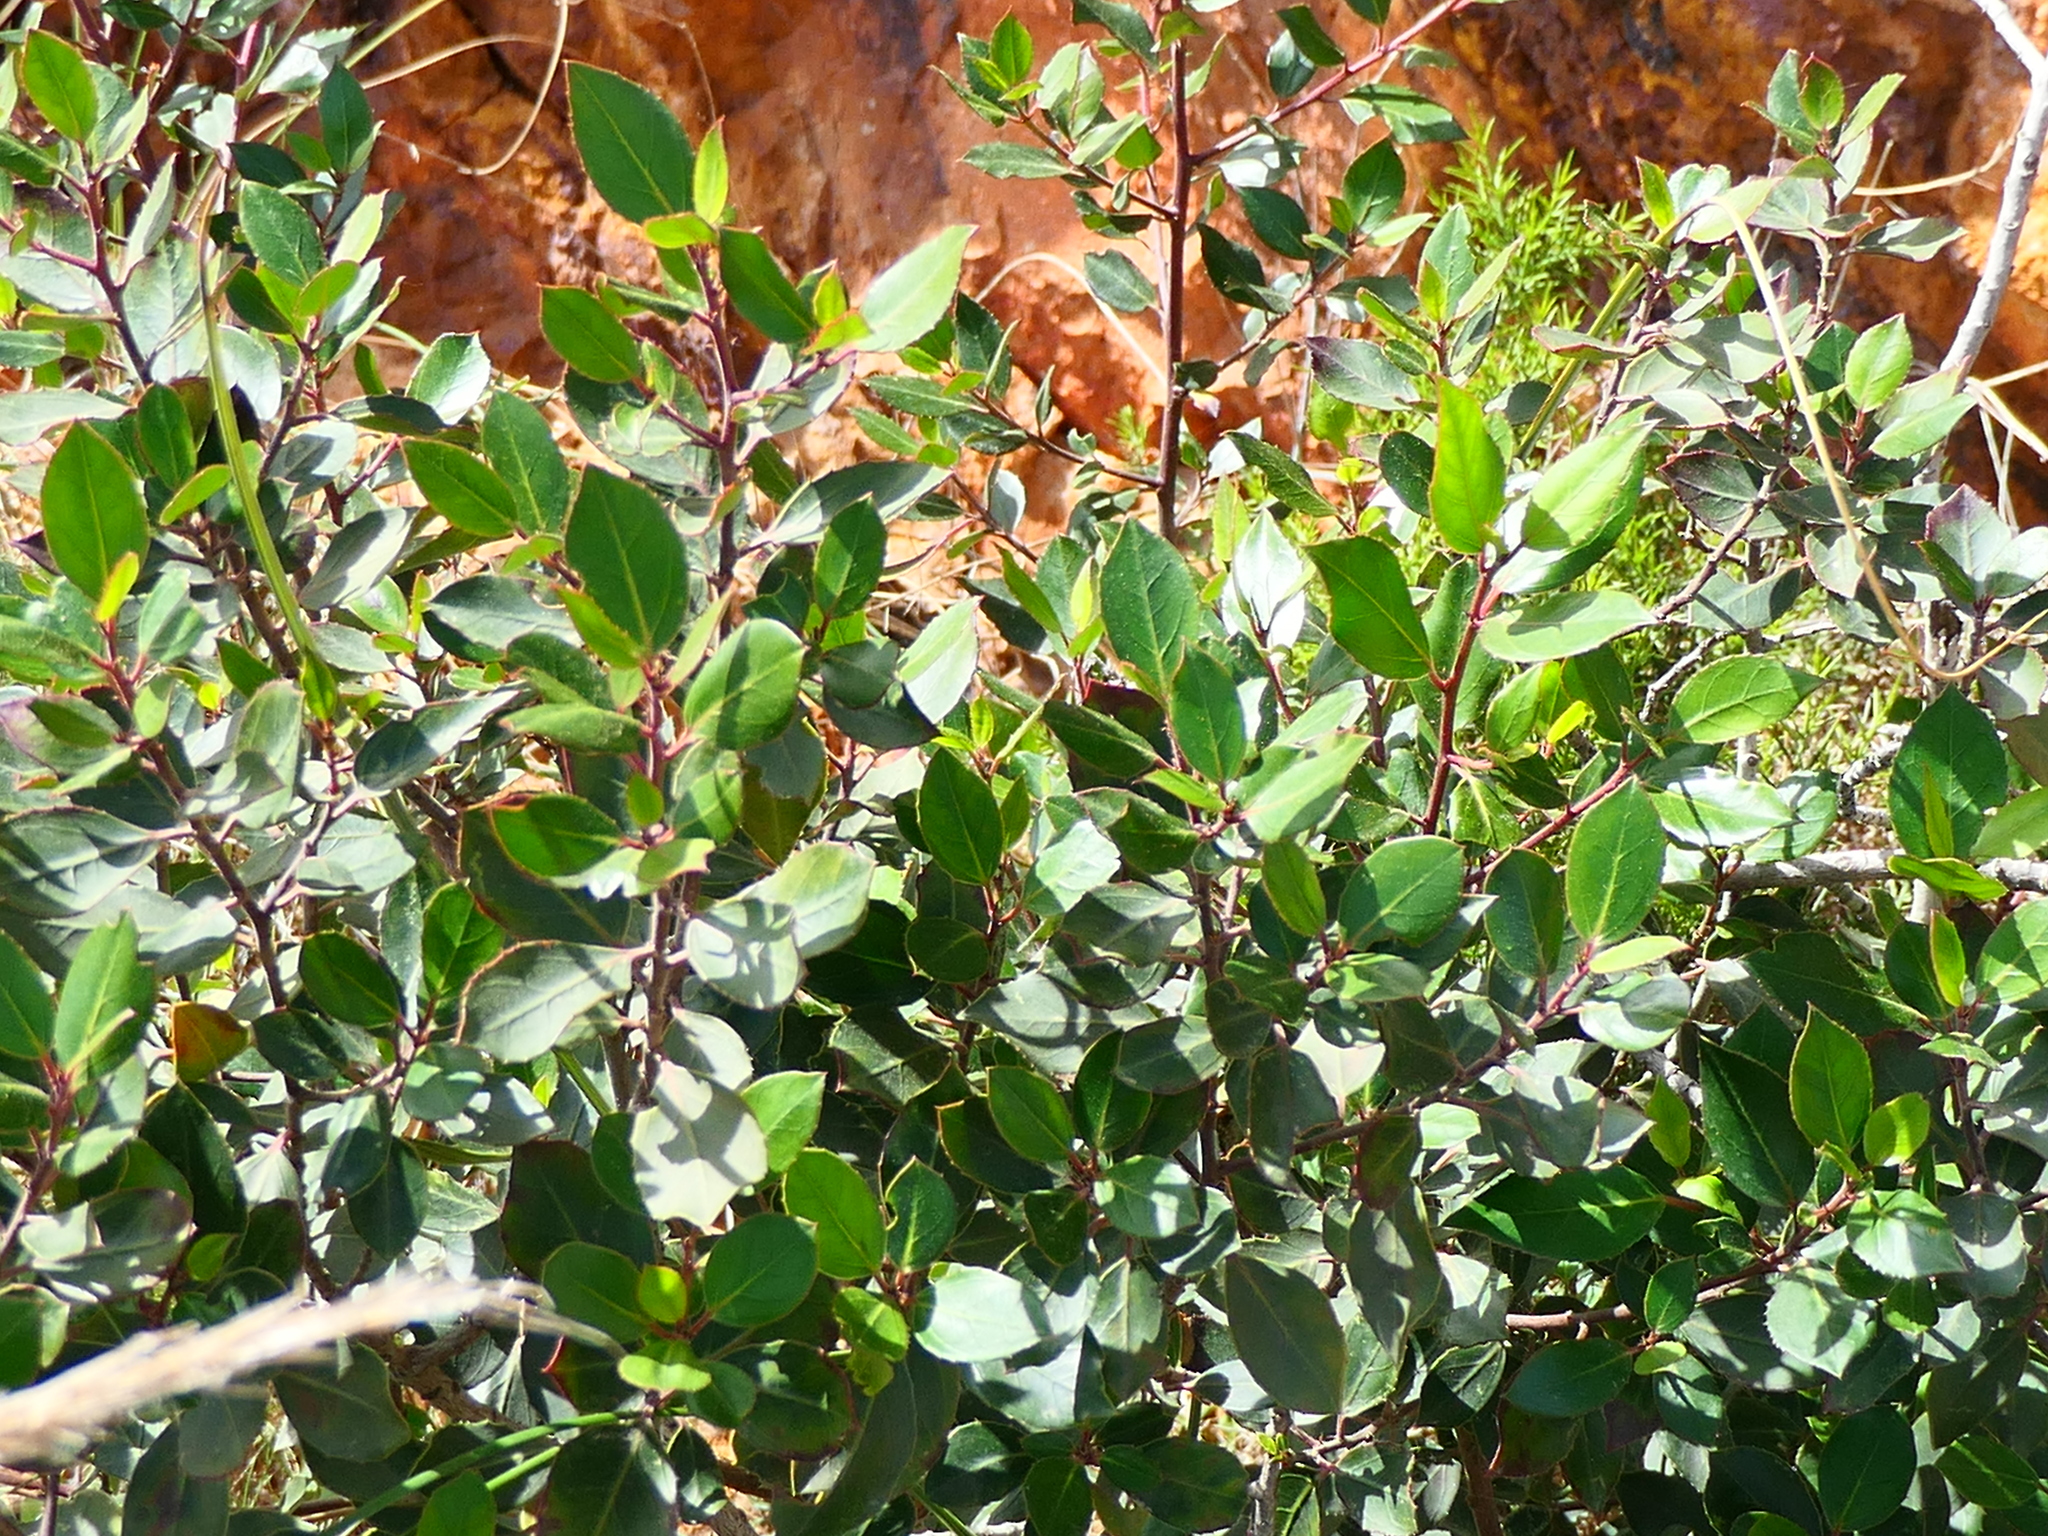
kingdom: Plantae
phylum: Tracheophyta
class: Magnoliopsida
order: Rosales
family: Rhamnaceae
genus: Rhamnus
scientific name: Rhamnus alaternus
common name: Mediterranean buckthorn
